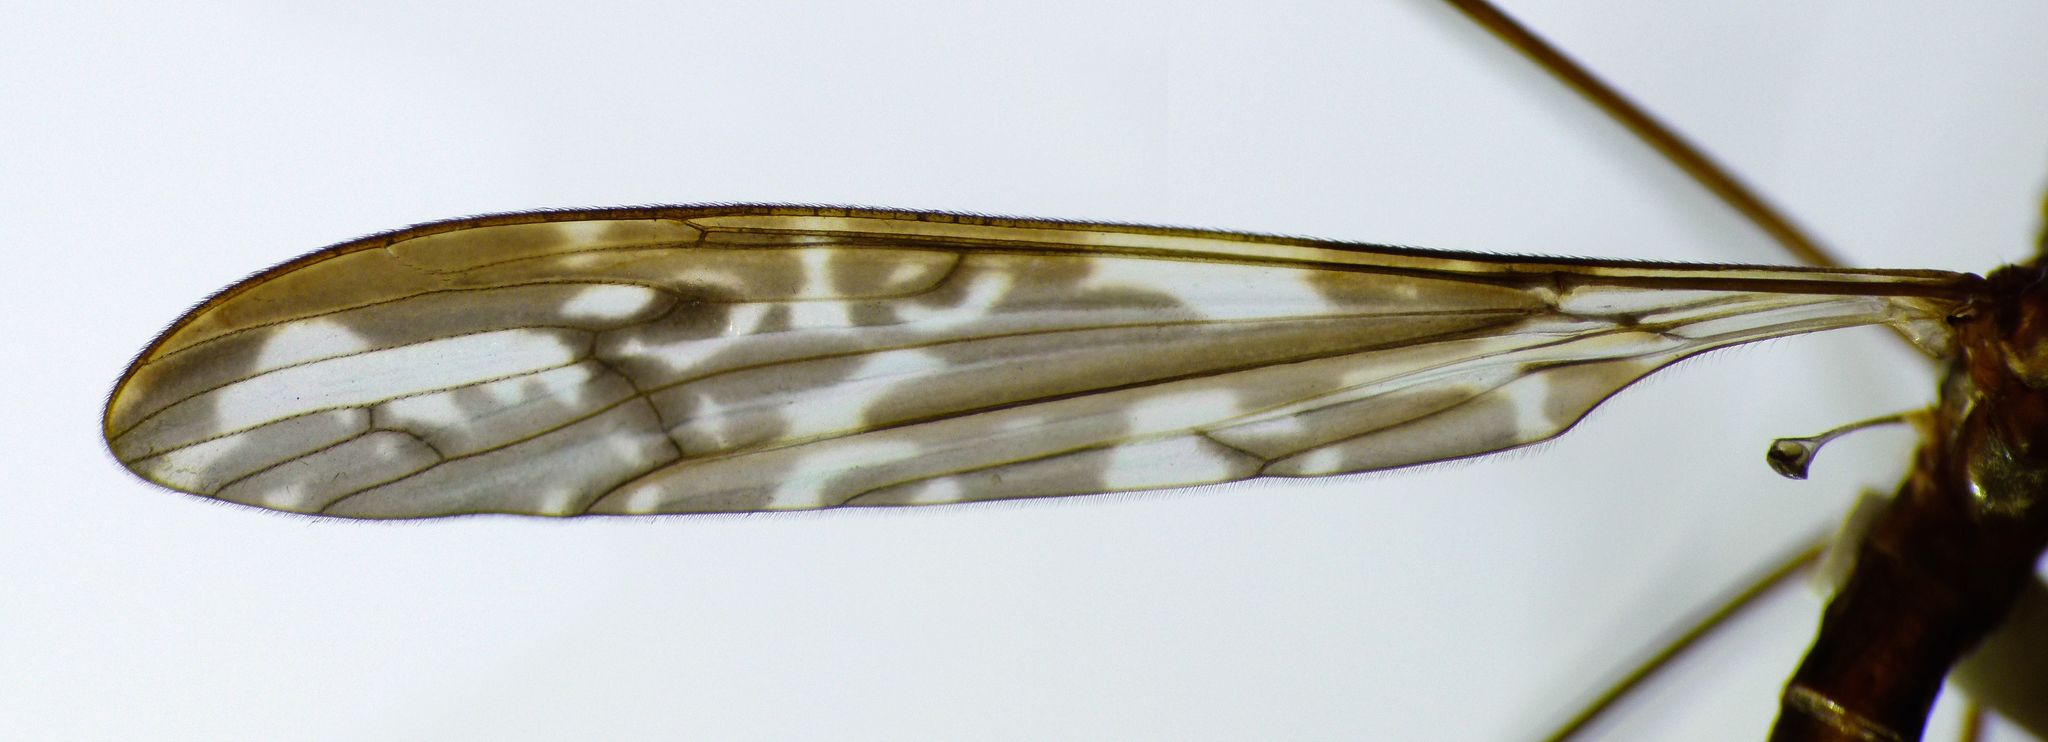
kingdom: Animalia
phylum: Arthropoda
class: Insecta
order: Diptera
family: Limoniidae
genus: Discobola
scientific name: Discobola dohrni
